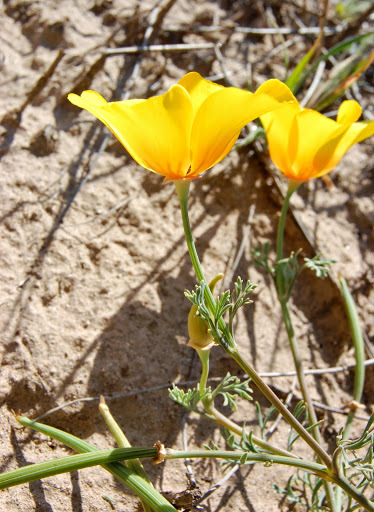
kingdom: Plantae
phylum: Tracheophyta
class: Magnoliopsida
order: Ranunculales
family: Papaveraceae
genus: Eschscholzia
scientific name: Eschscholzia californica
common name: California poppy
